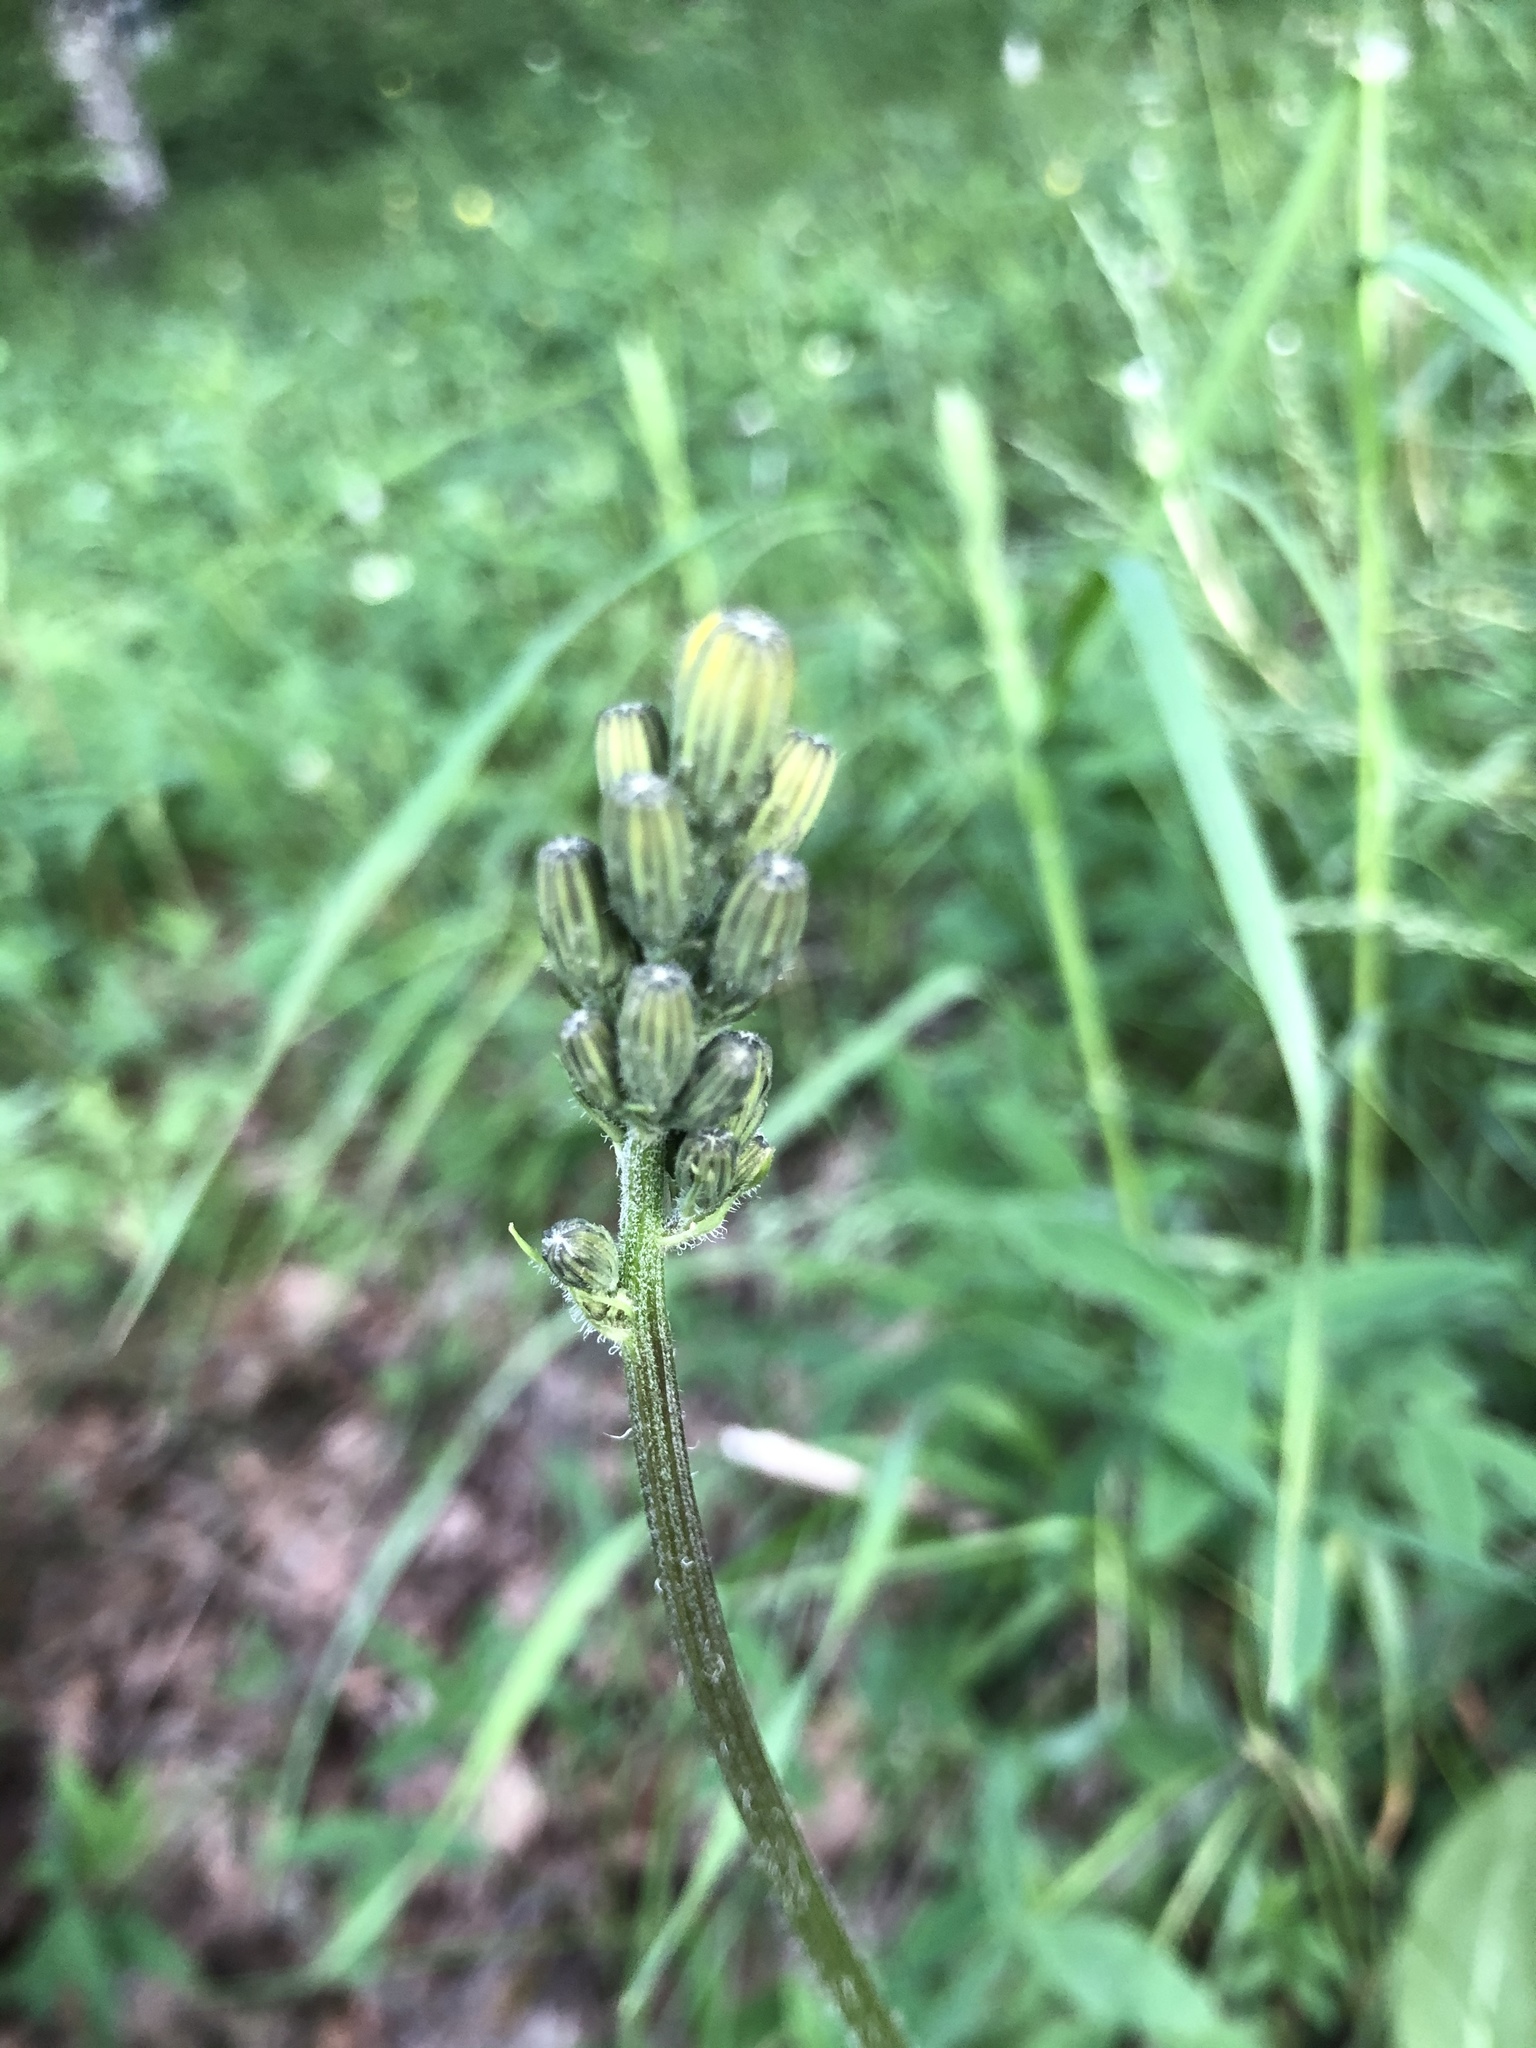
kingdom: Plantae
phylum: Tracheophyta
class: Magnoliopsida
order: Asterales
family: Asteraceae
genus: Crepis
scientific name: Crepis praemorsa
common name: Leafless hawk's-beard
